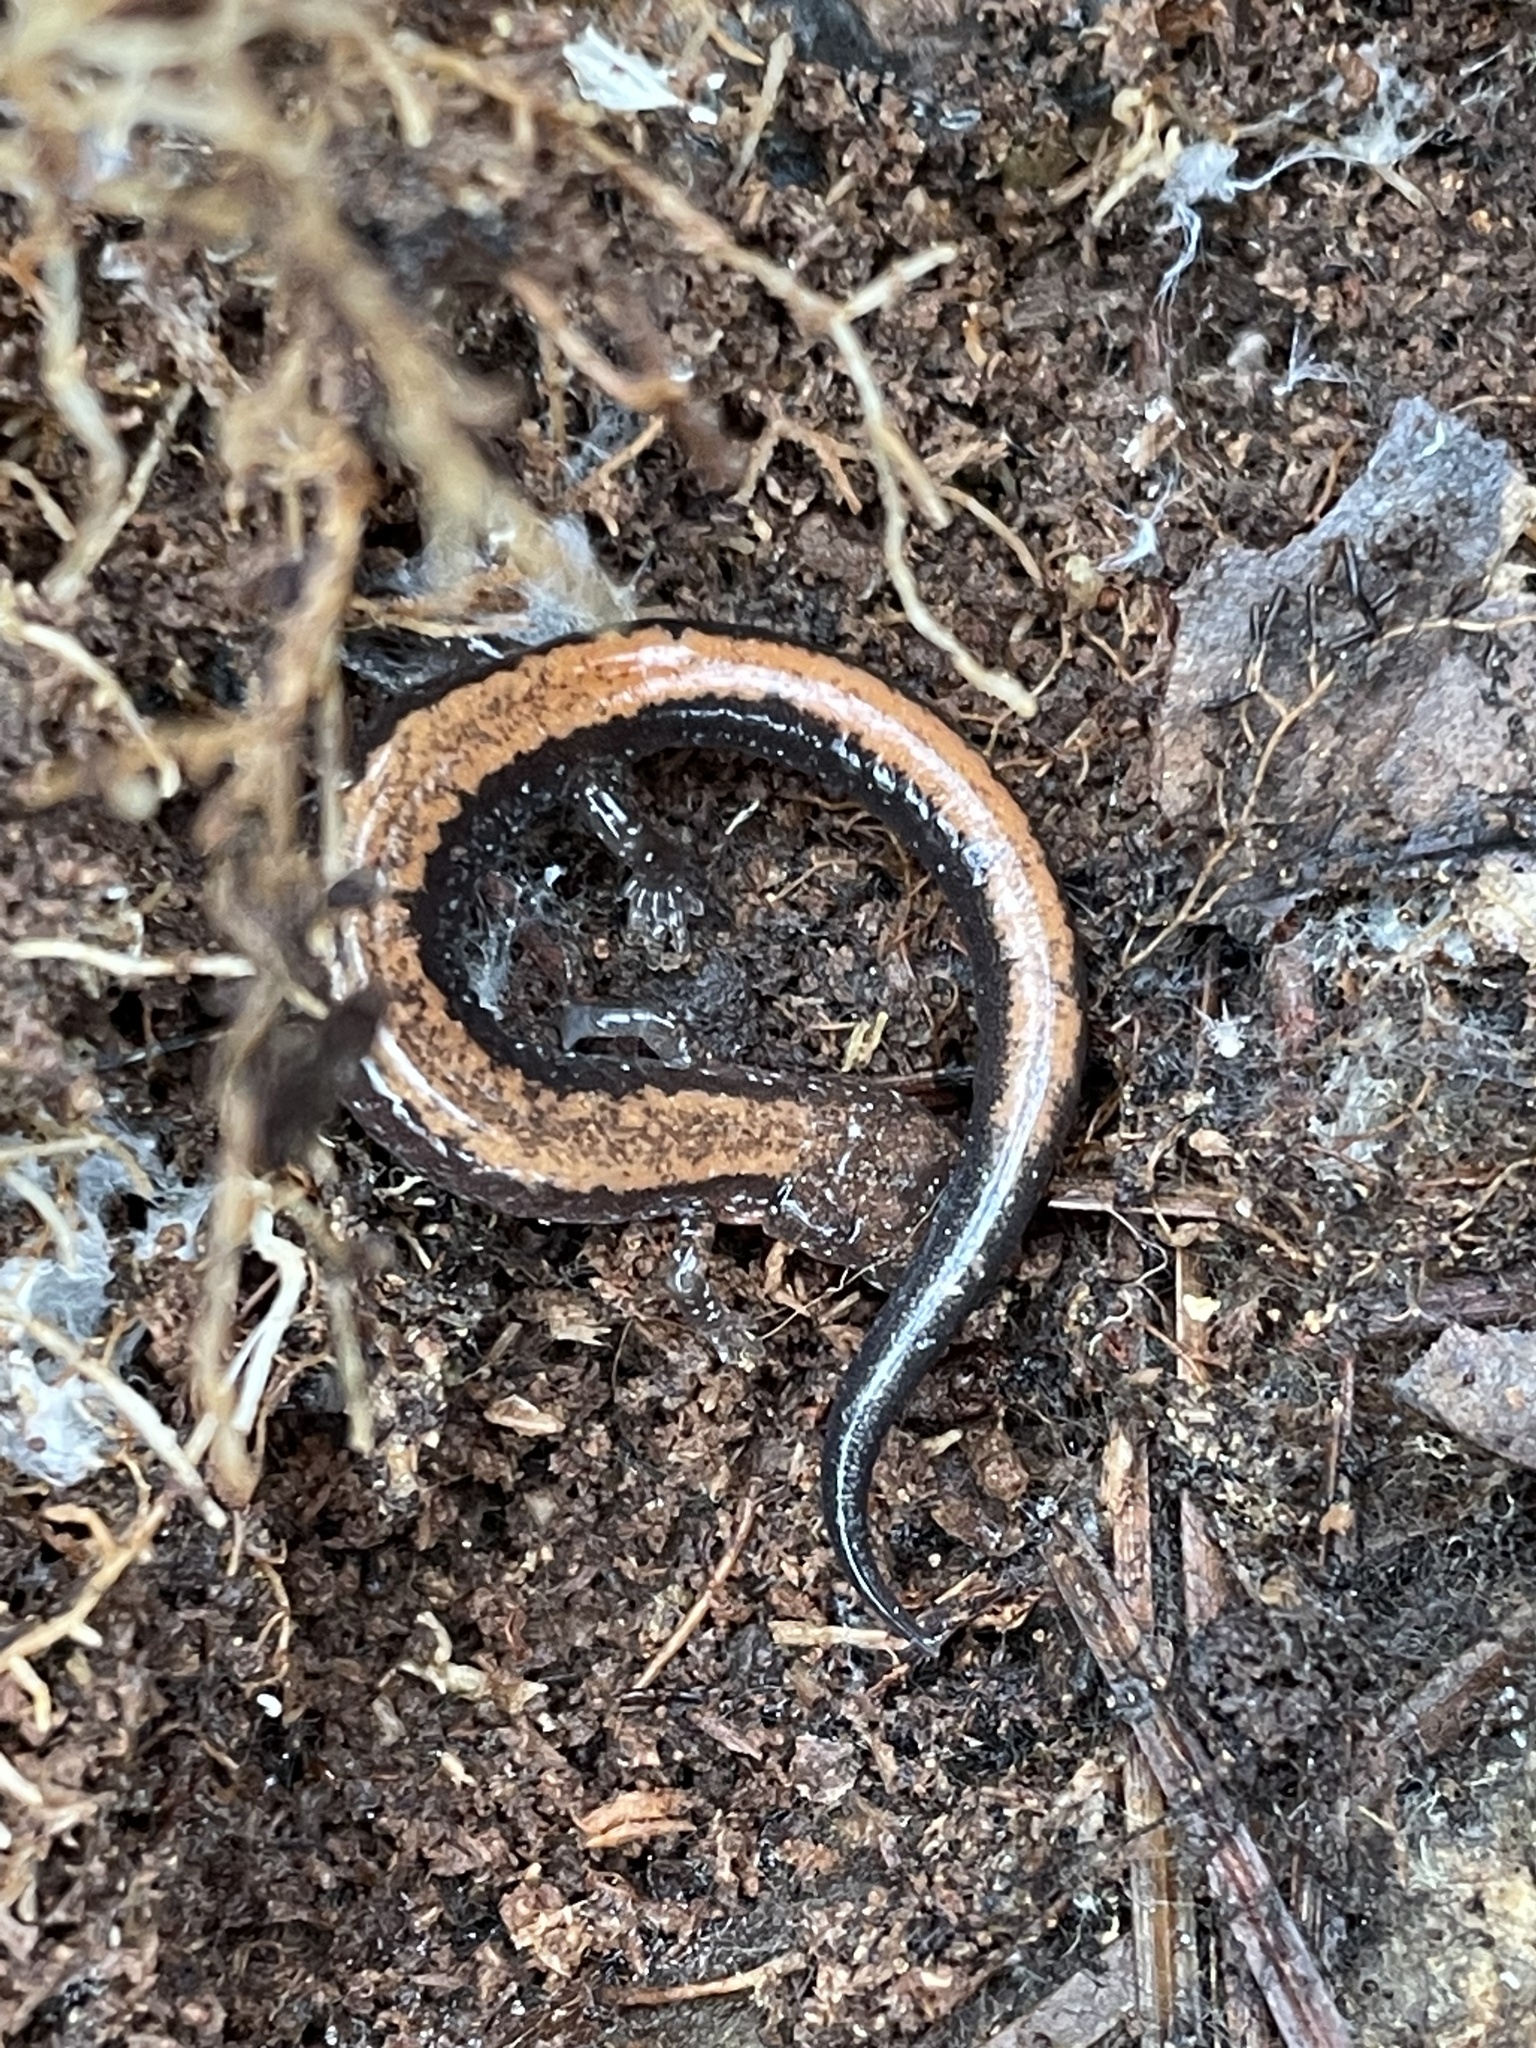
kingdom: Animalia
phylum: Chordata
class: Amphibia
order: Caudata
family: Plethodontidae
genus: Plethodon
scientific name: Plethodon cinereus
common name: Redback salamander
